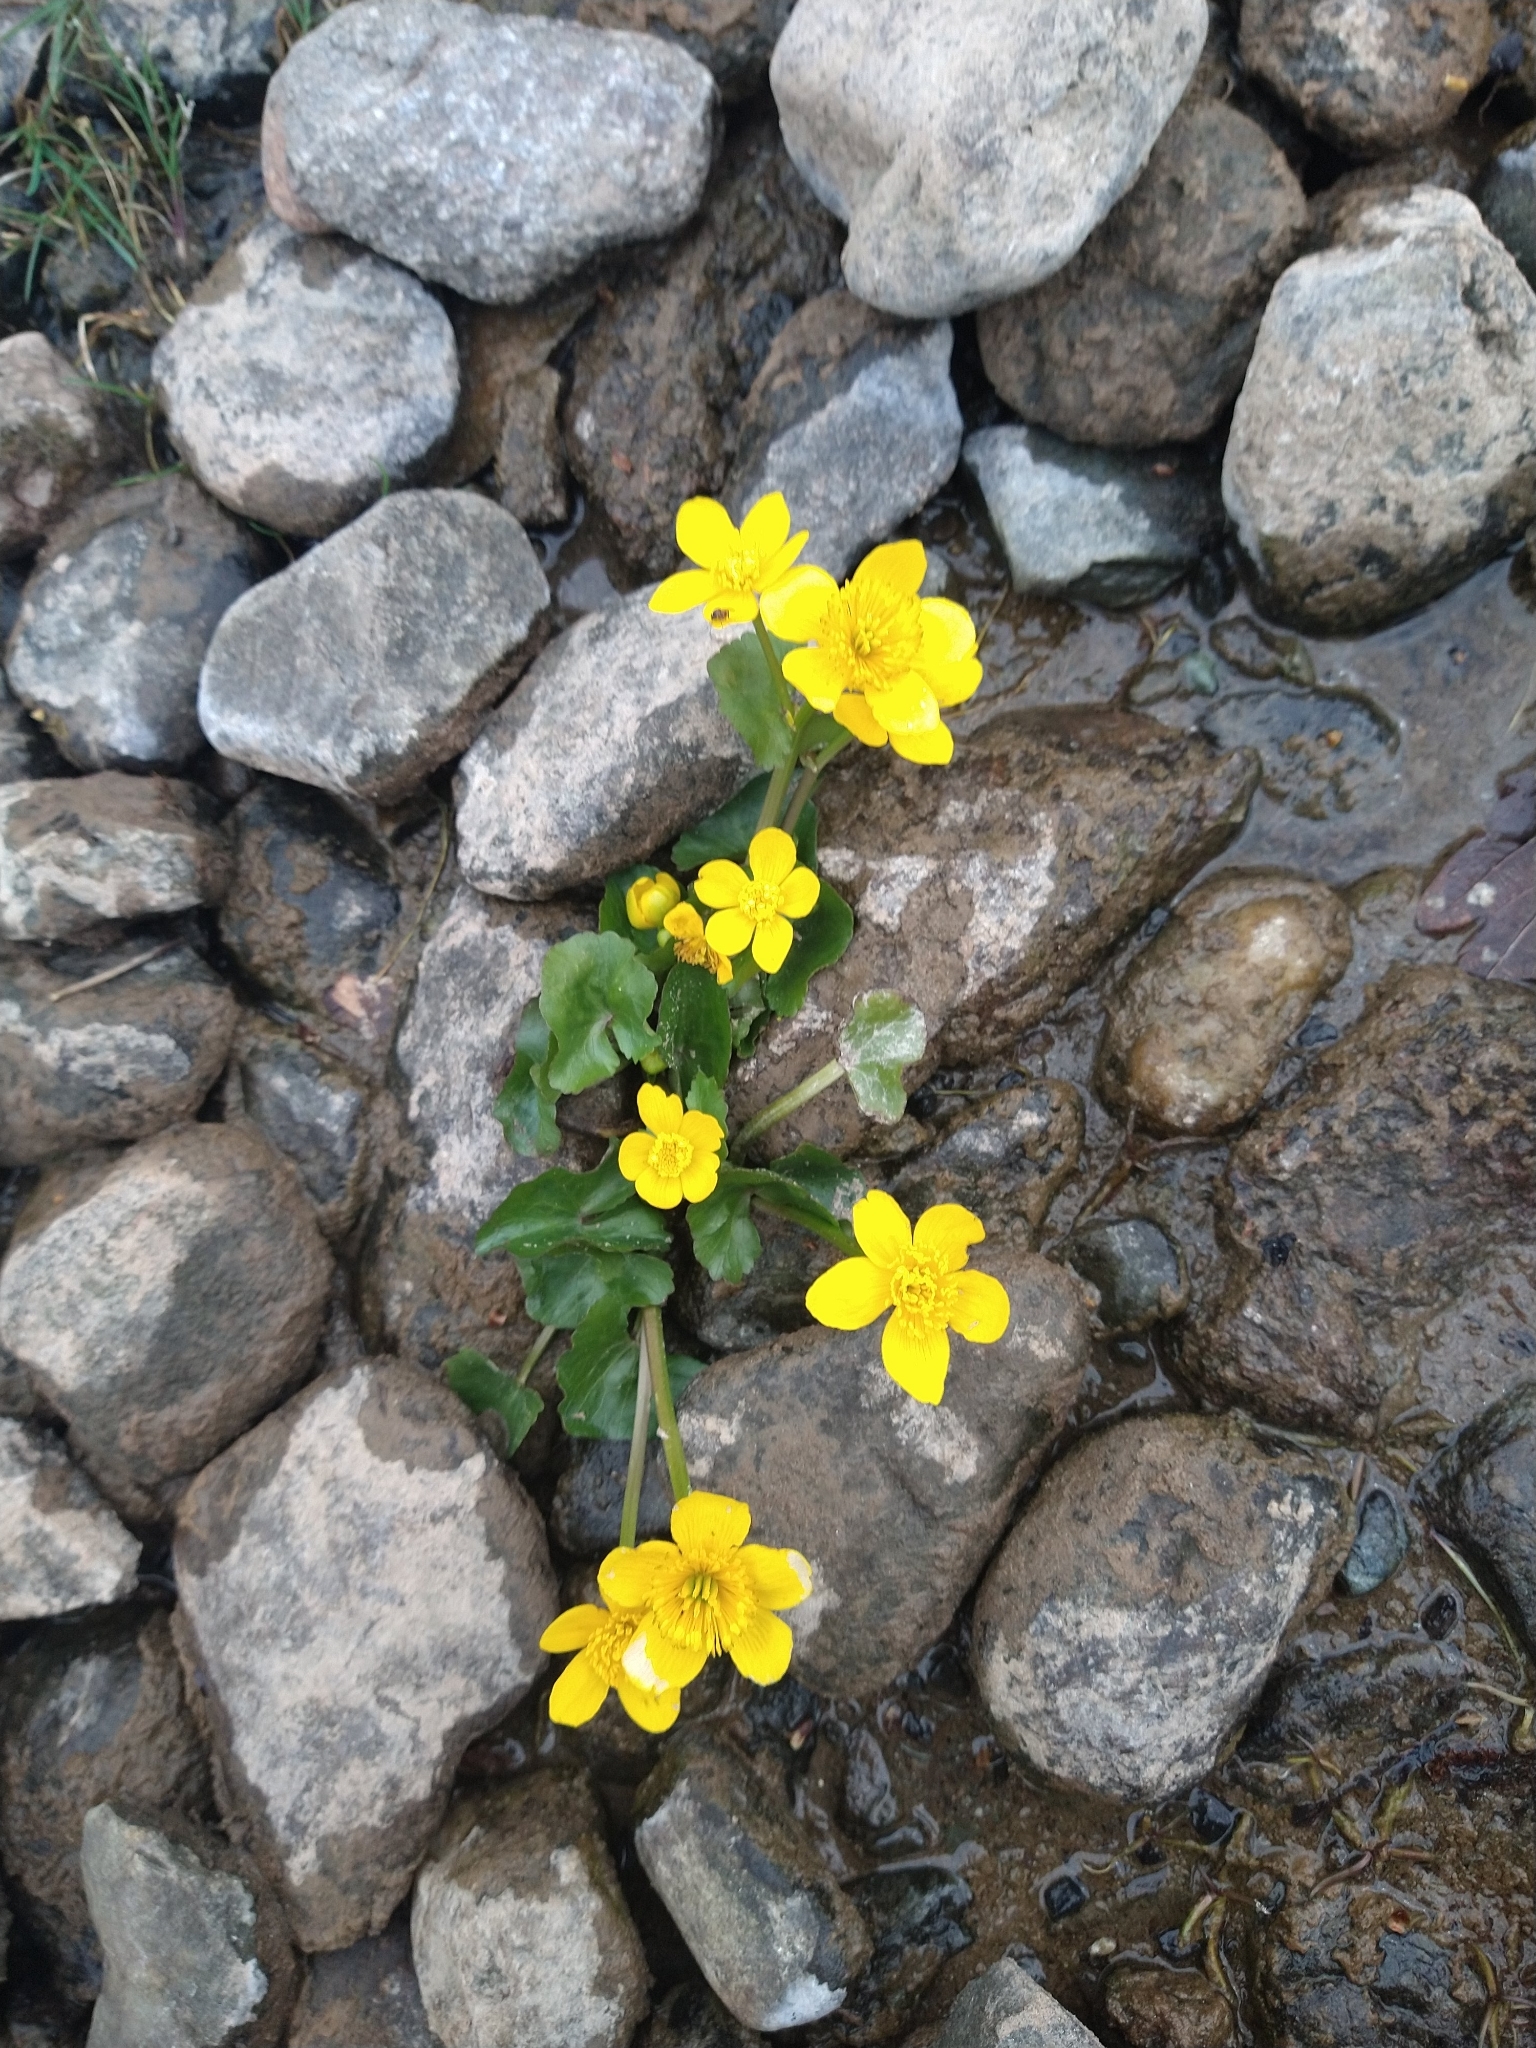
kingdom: Plantae
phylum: Tracheophyta
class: Magnoliopsida
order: Ranunculales
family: Ranunculaceae
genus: Caltha
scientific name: Caltha palustris
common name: Marsh marigold
